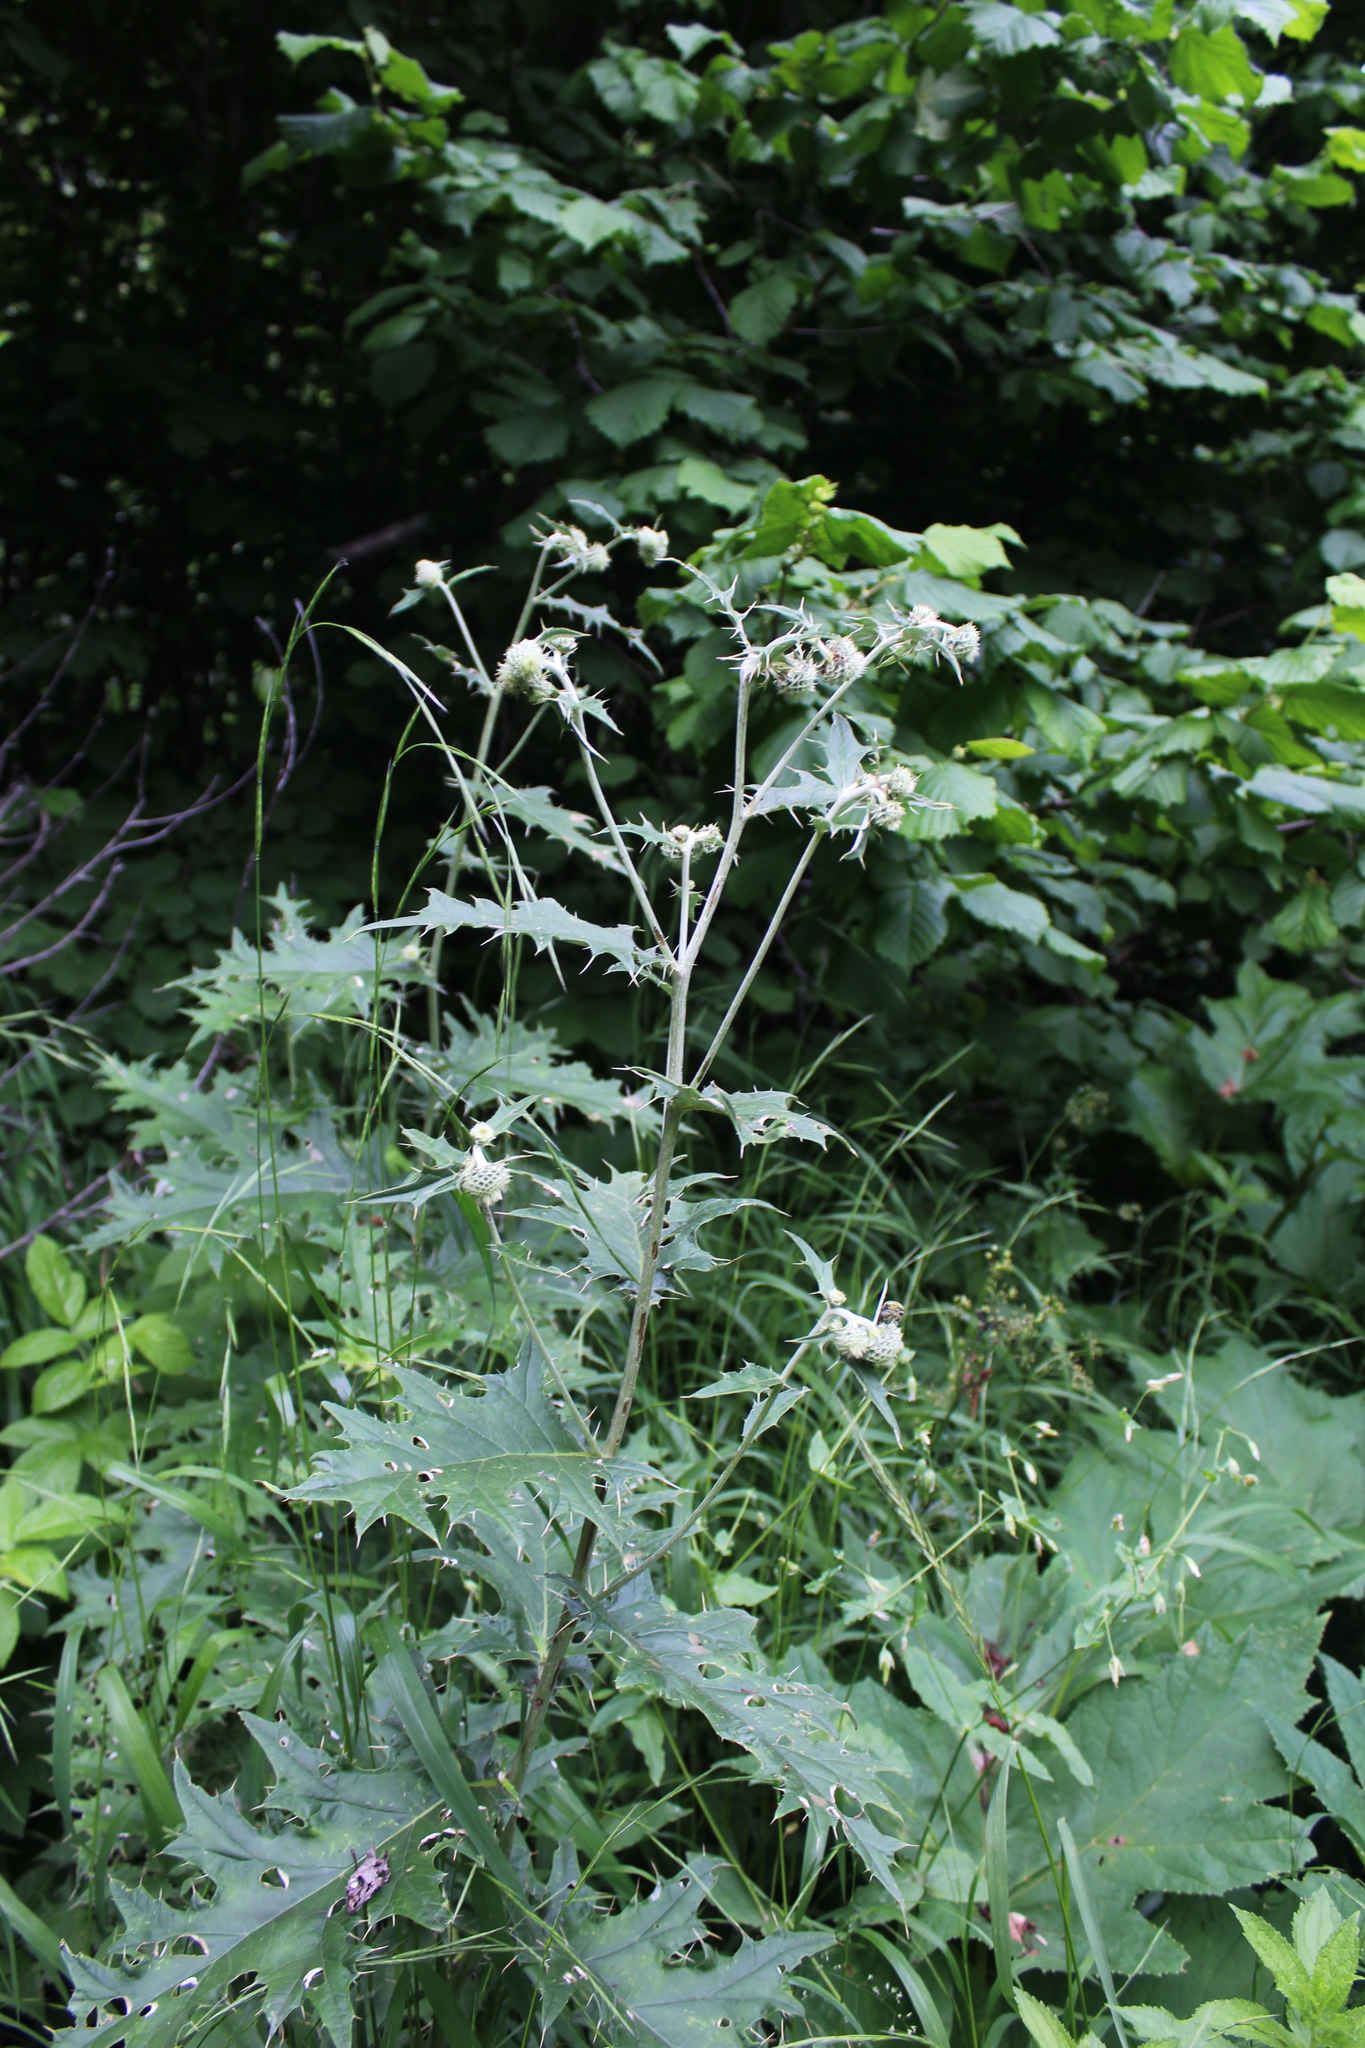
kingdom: Plantae
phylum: Tracheophyta
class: Magnoliopsida
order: Asterales
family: Asteraceae
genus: Lophiolepis
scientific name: Lophiolepis chlorocoma
